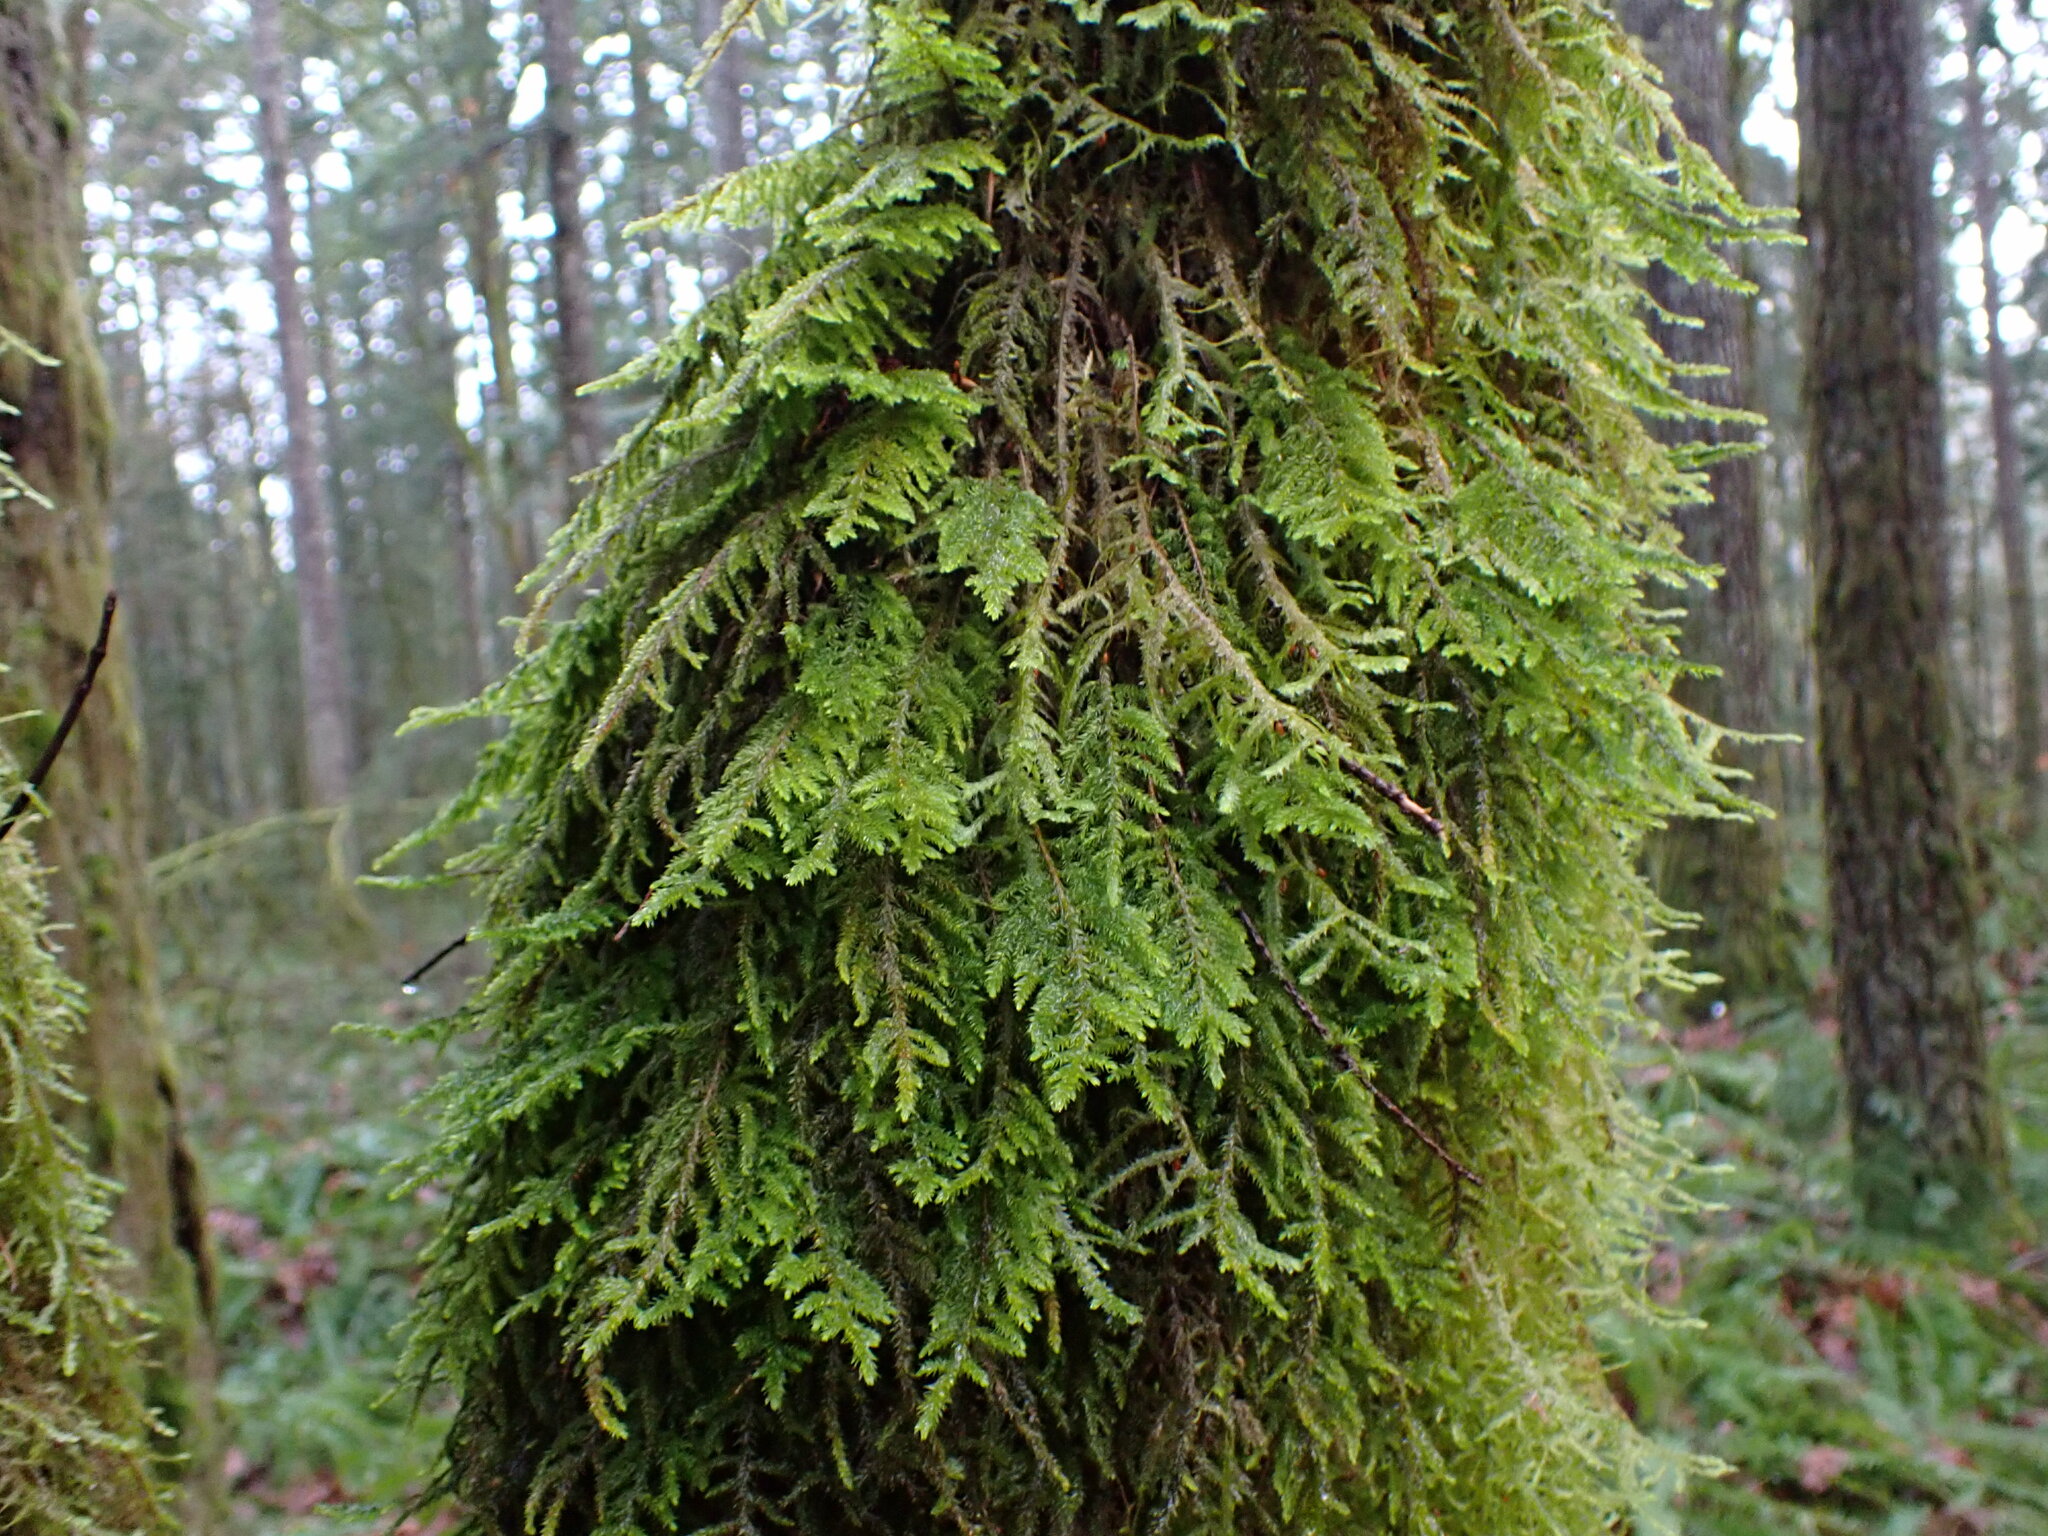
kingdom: Plantae
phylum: Bryophyta
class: Bryopsida
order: Hypnales
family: Cryphaeaceae
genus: Dendroalsia
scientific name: Dendroalsia abietina
